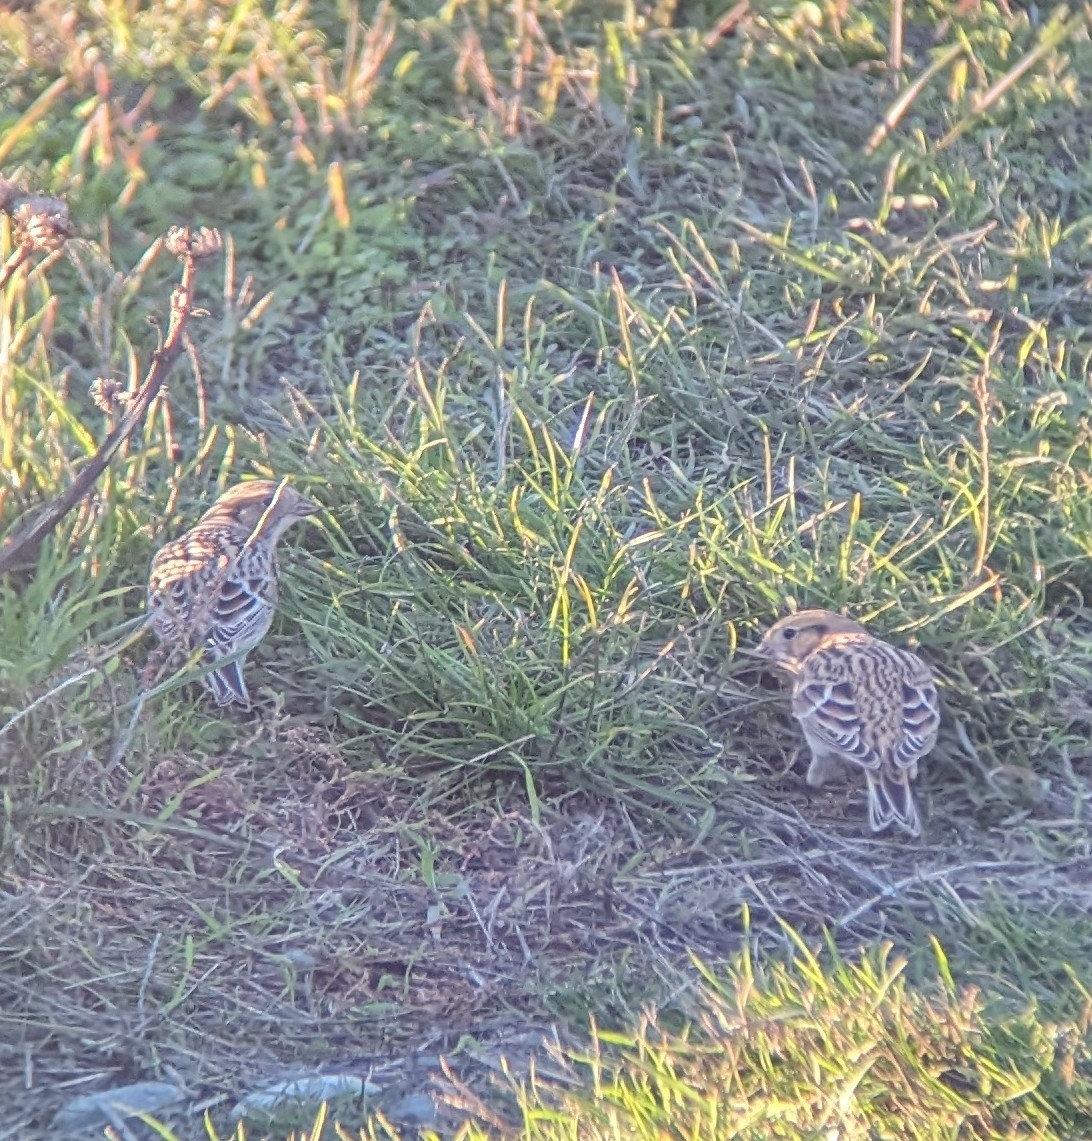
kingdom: Animalia
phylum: Chordata
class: Aves
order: Passeriformes
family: Calcariidae
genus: Calcarius
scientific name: Calcarius lapponicus
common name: Lapland longspur
